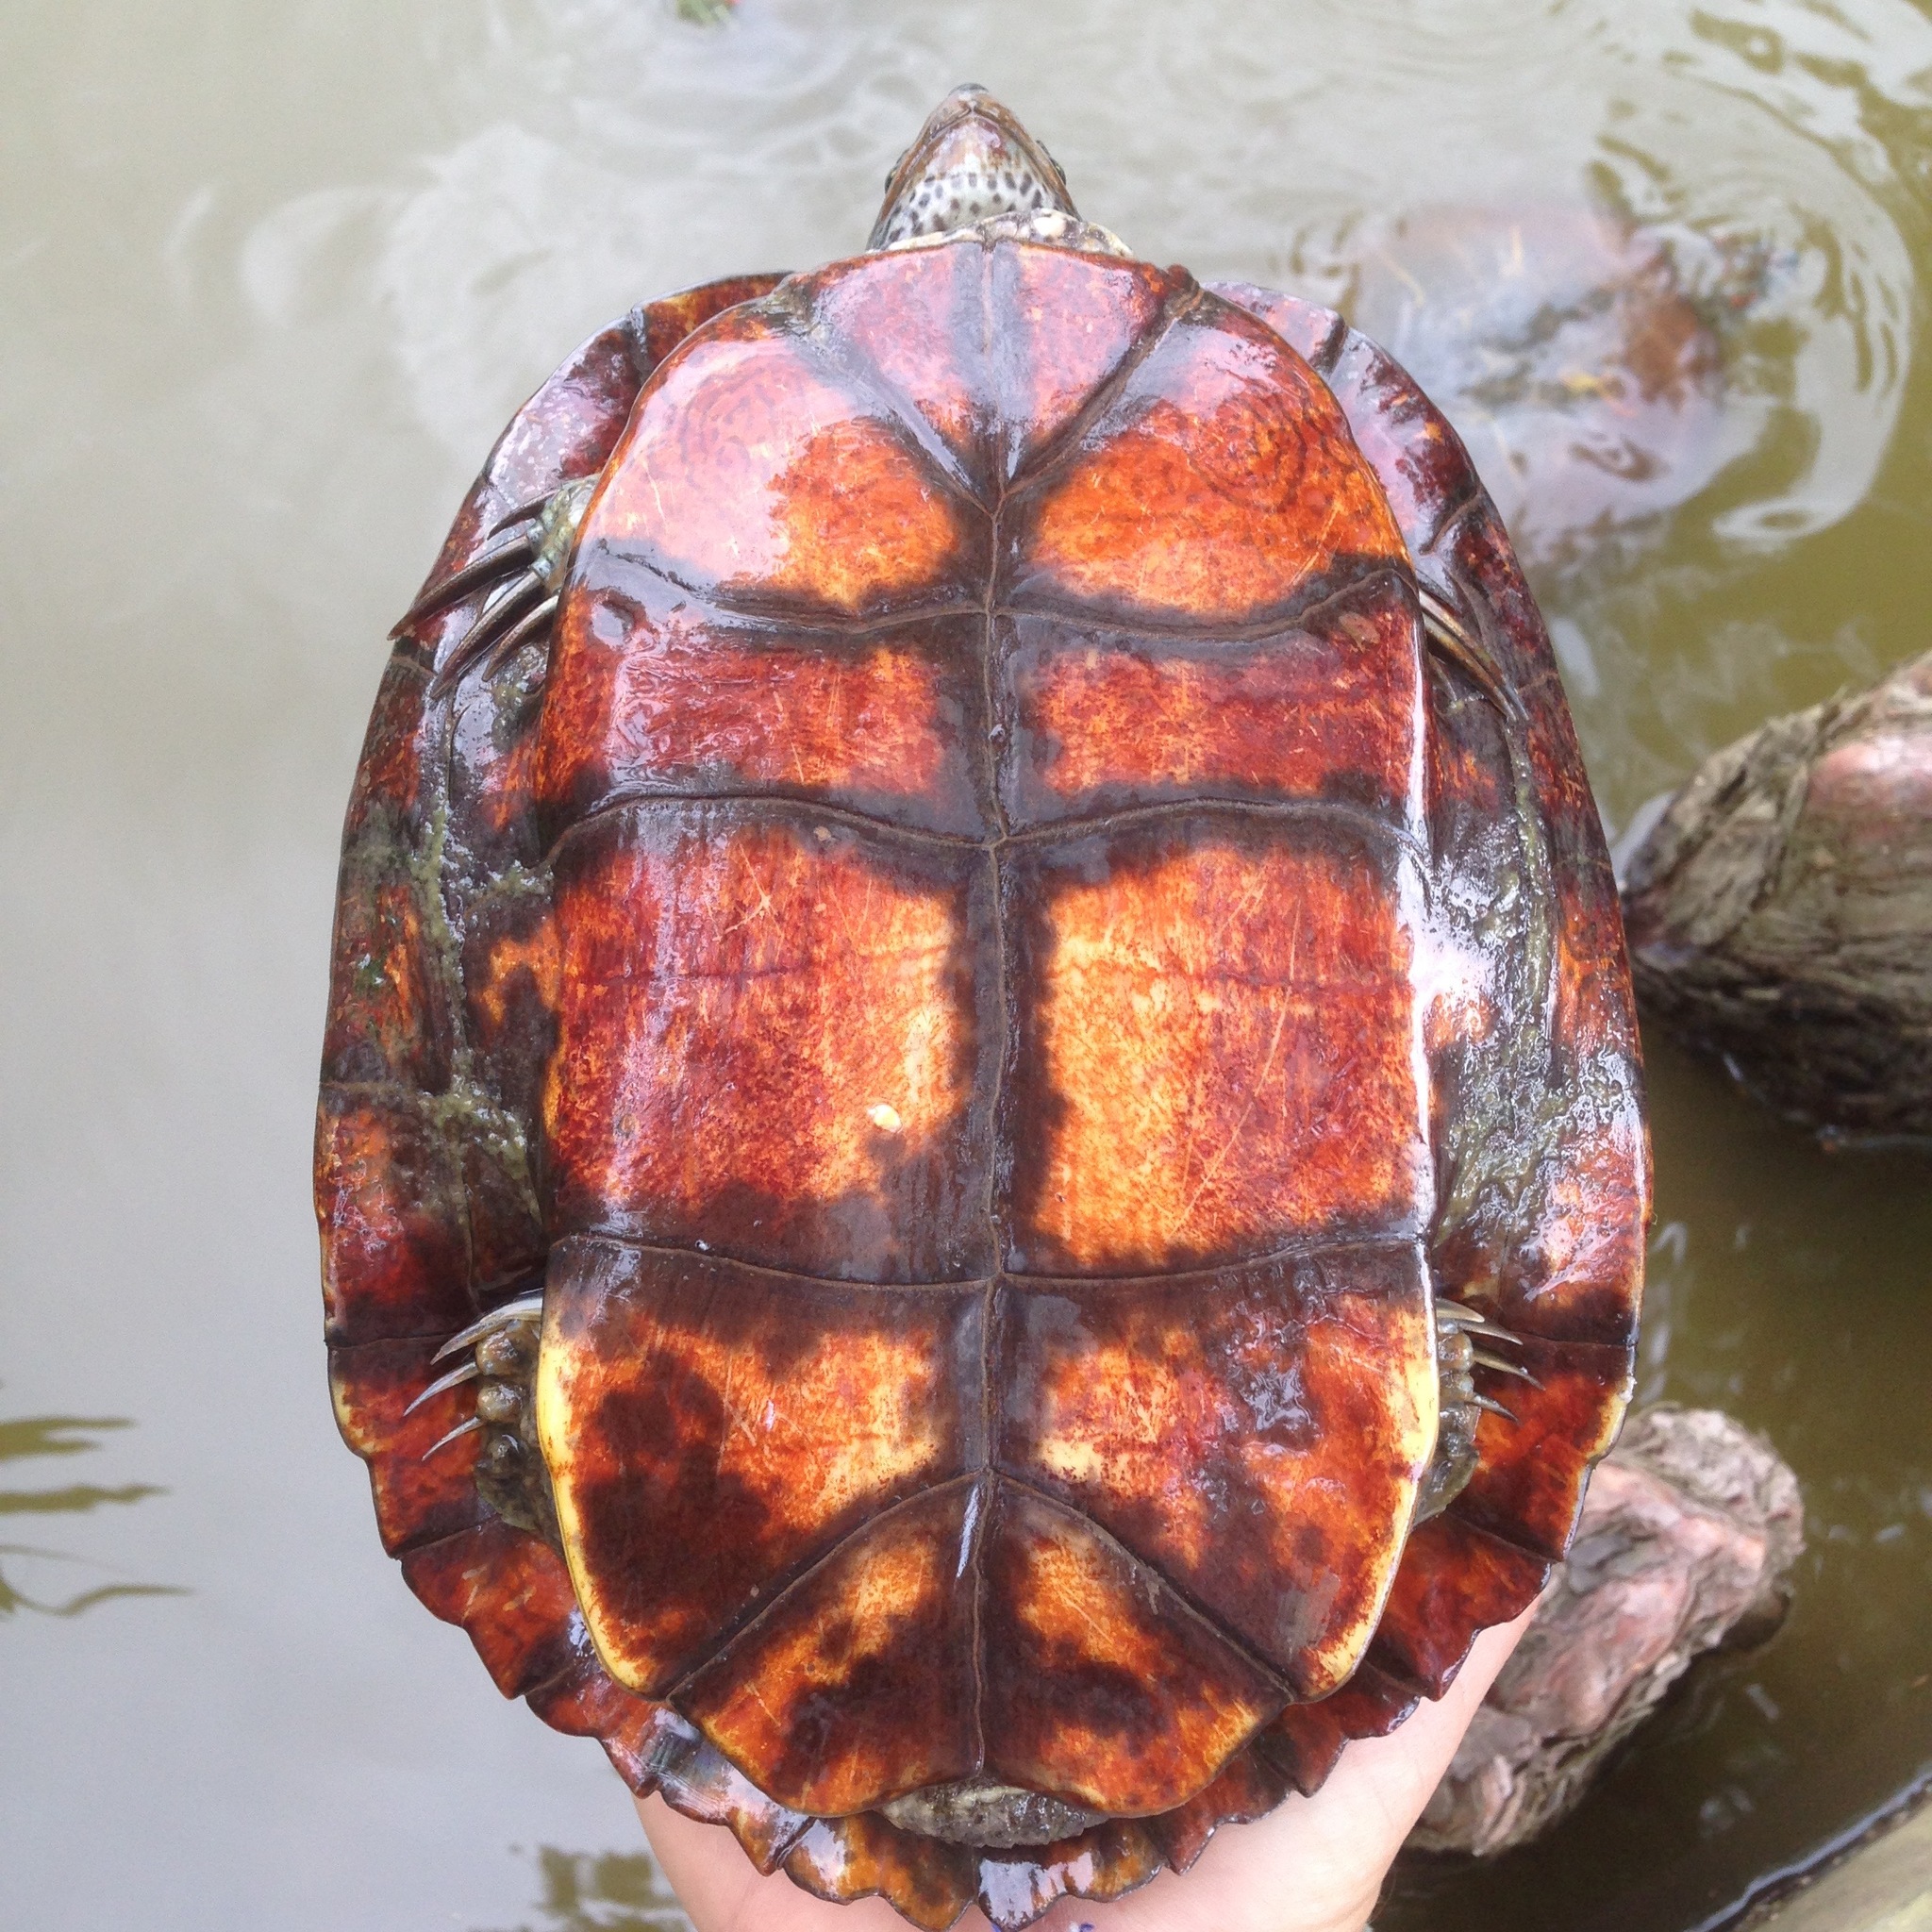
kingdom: Animalia
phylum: Chordata
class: Testudines
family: Emydidae
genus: Trachemys
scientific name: Trachemys scripta
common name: Slider
